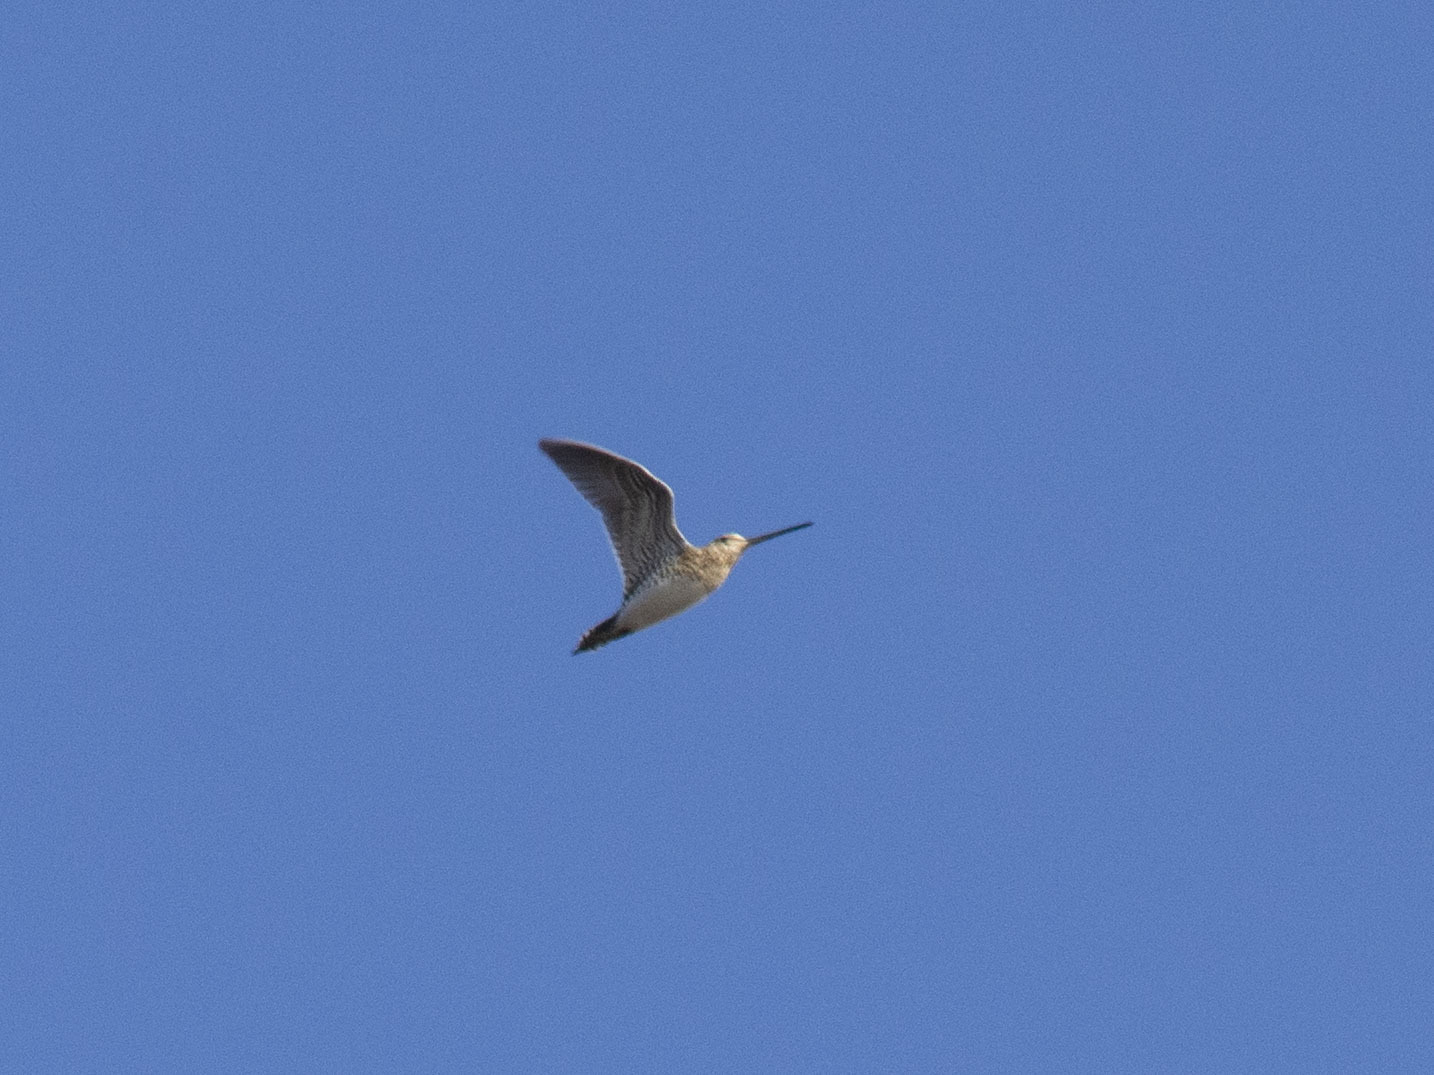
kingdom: Animalia
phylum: Chordata
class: Aves
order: Charadriiformes
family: Scolopacidae
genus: Gallinago
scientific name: Gallinago gallinago
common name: Common snipe
